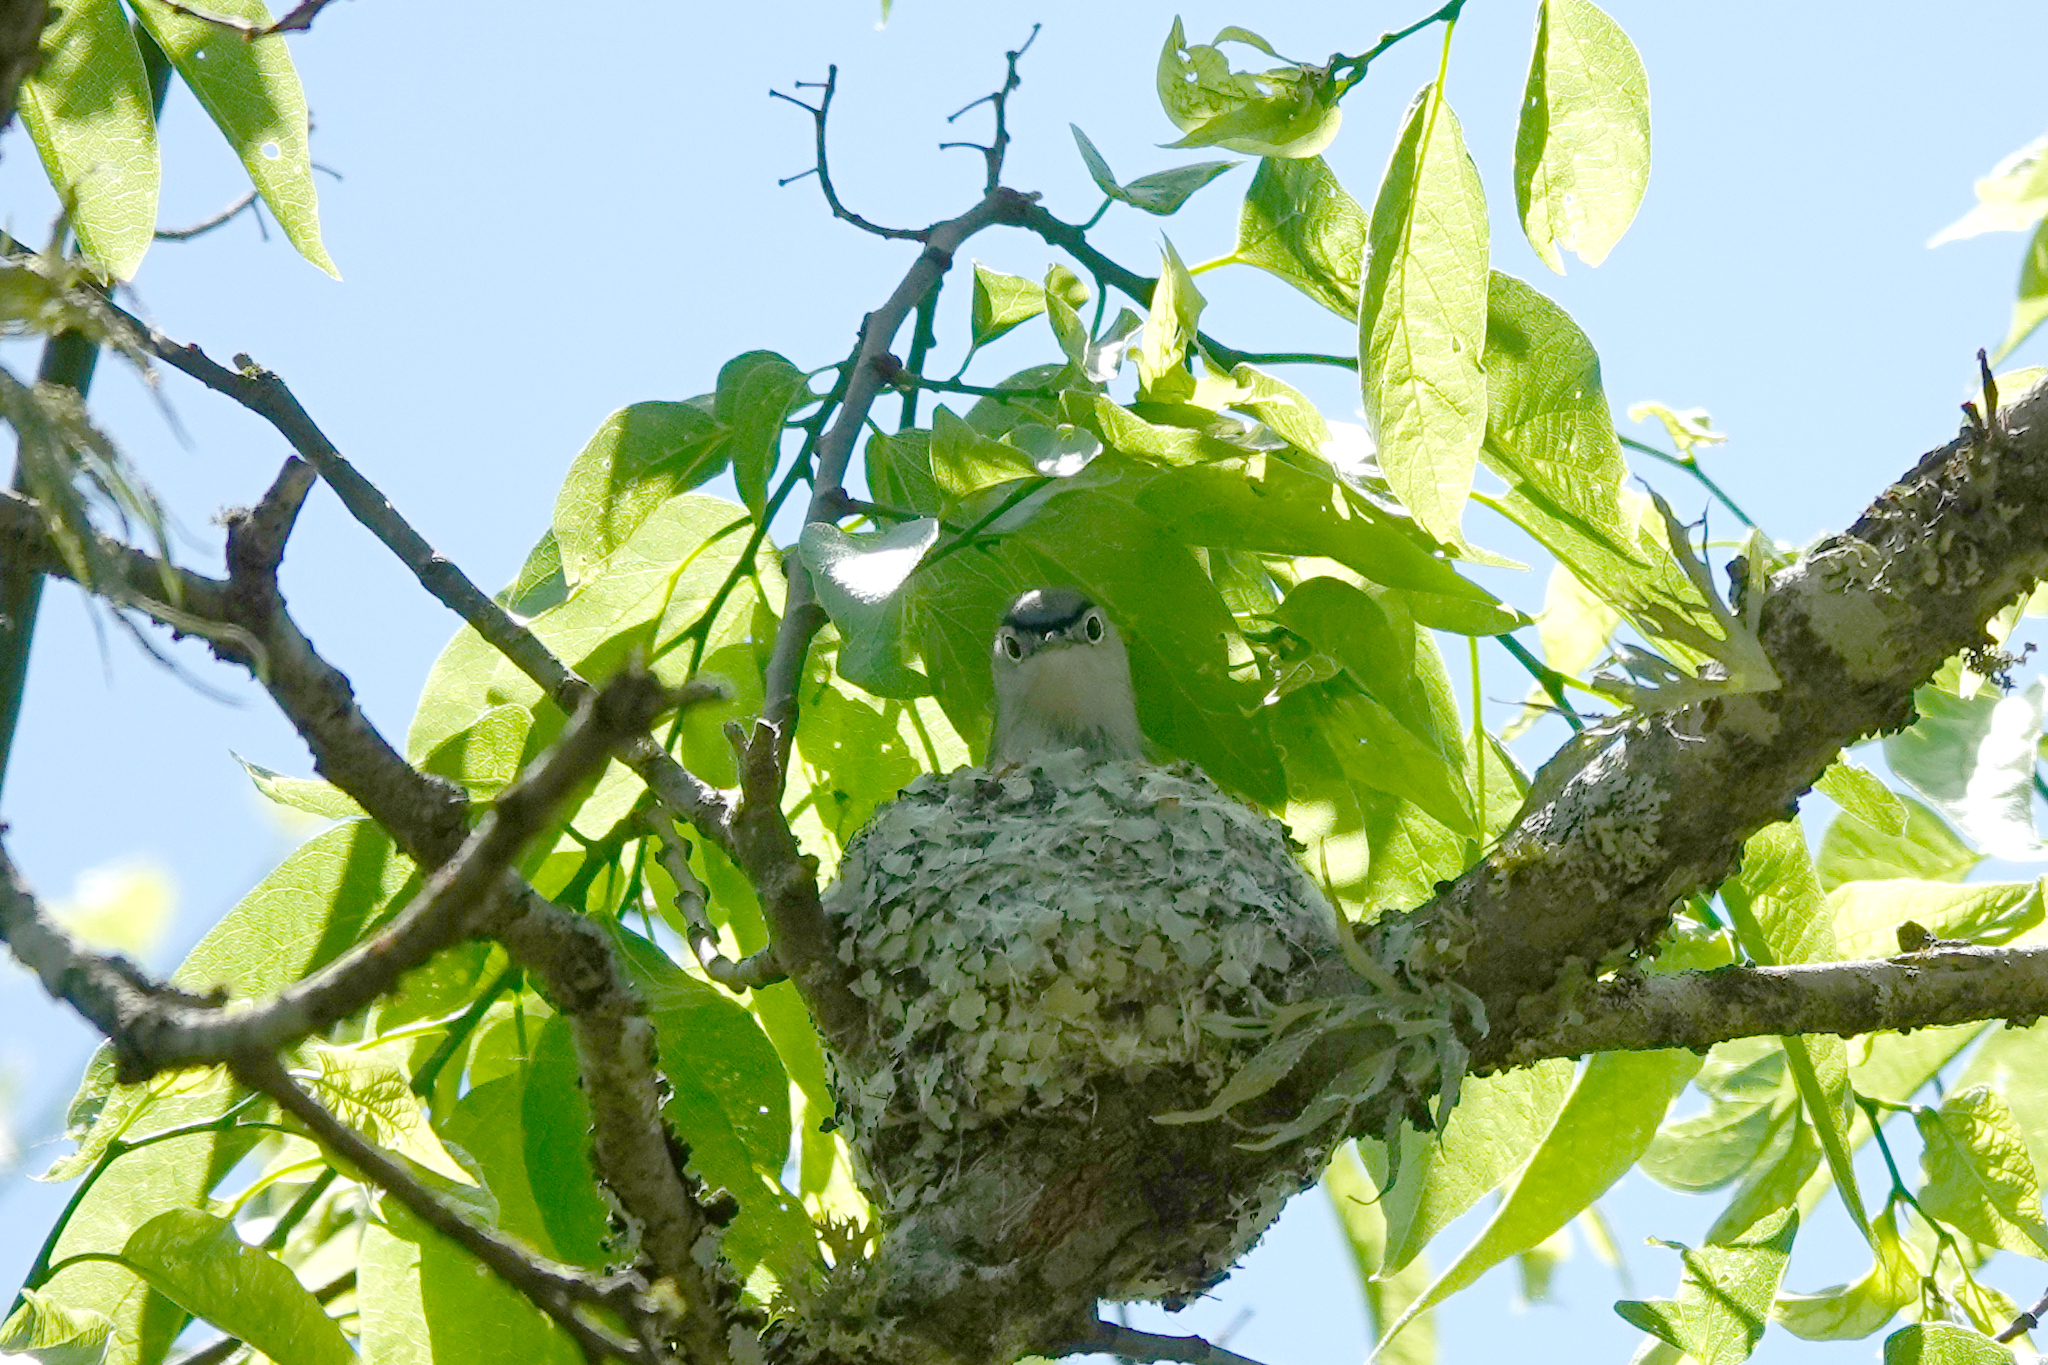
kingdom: Animalia
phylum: Chordata
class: Aves
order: Passeriformes
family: Polioptilidae
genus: Polioptila
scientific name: Polioptila caerulea
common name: Blue-gray gnatcatcher
